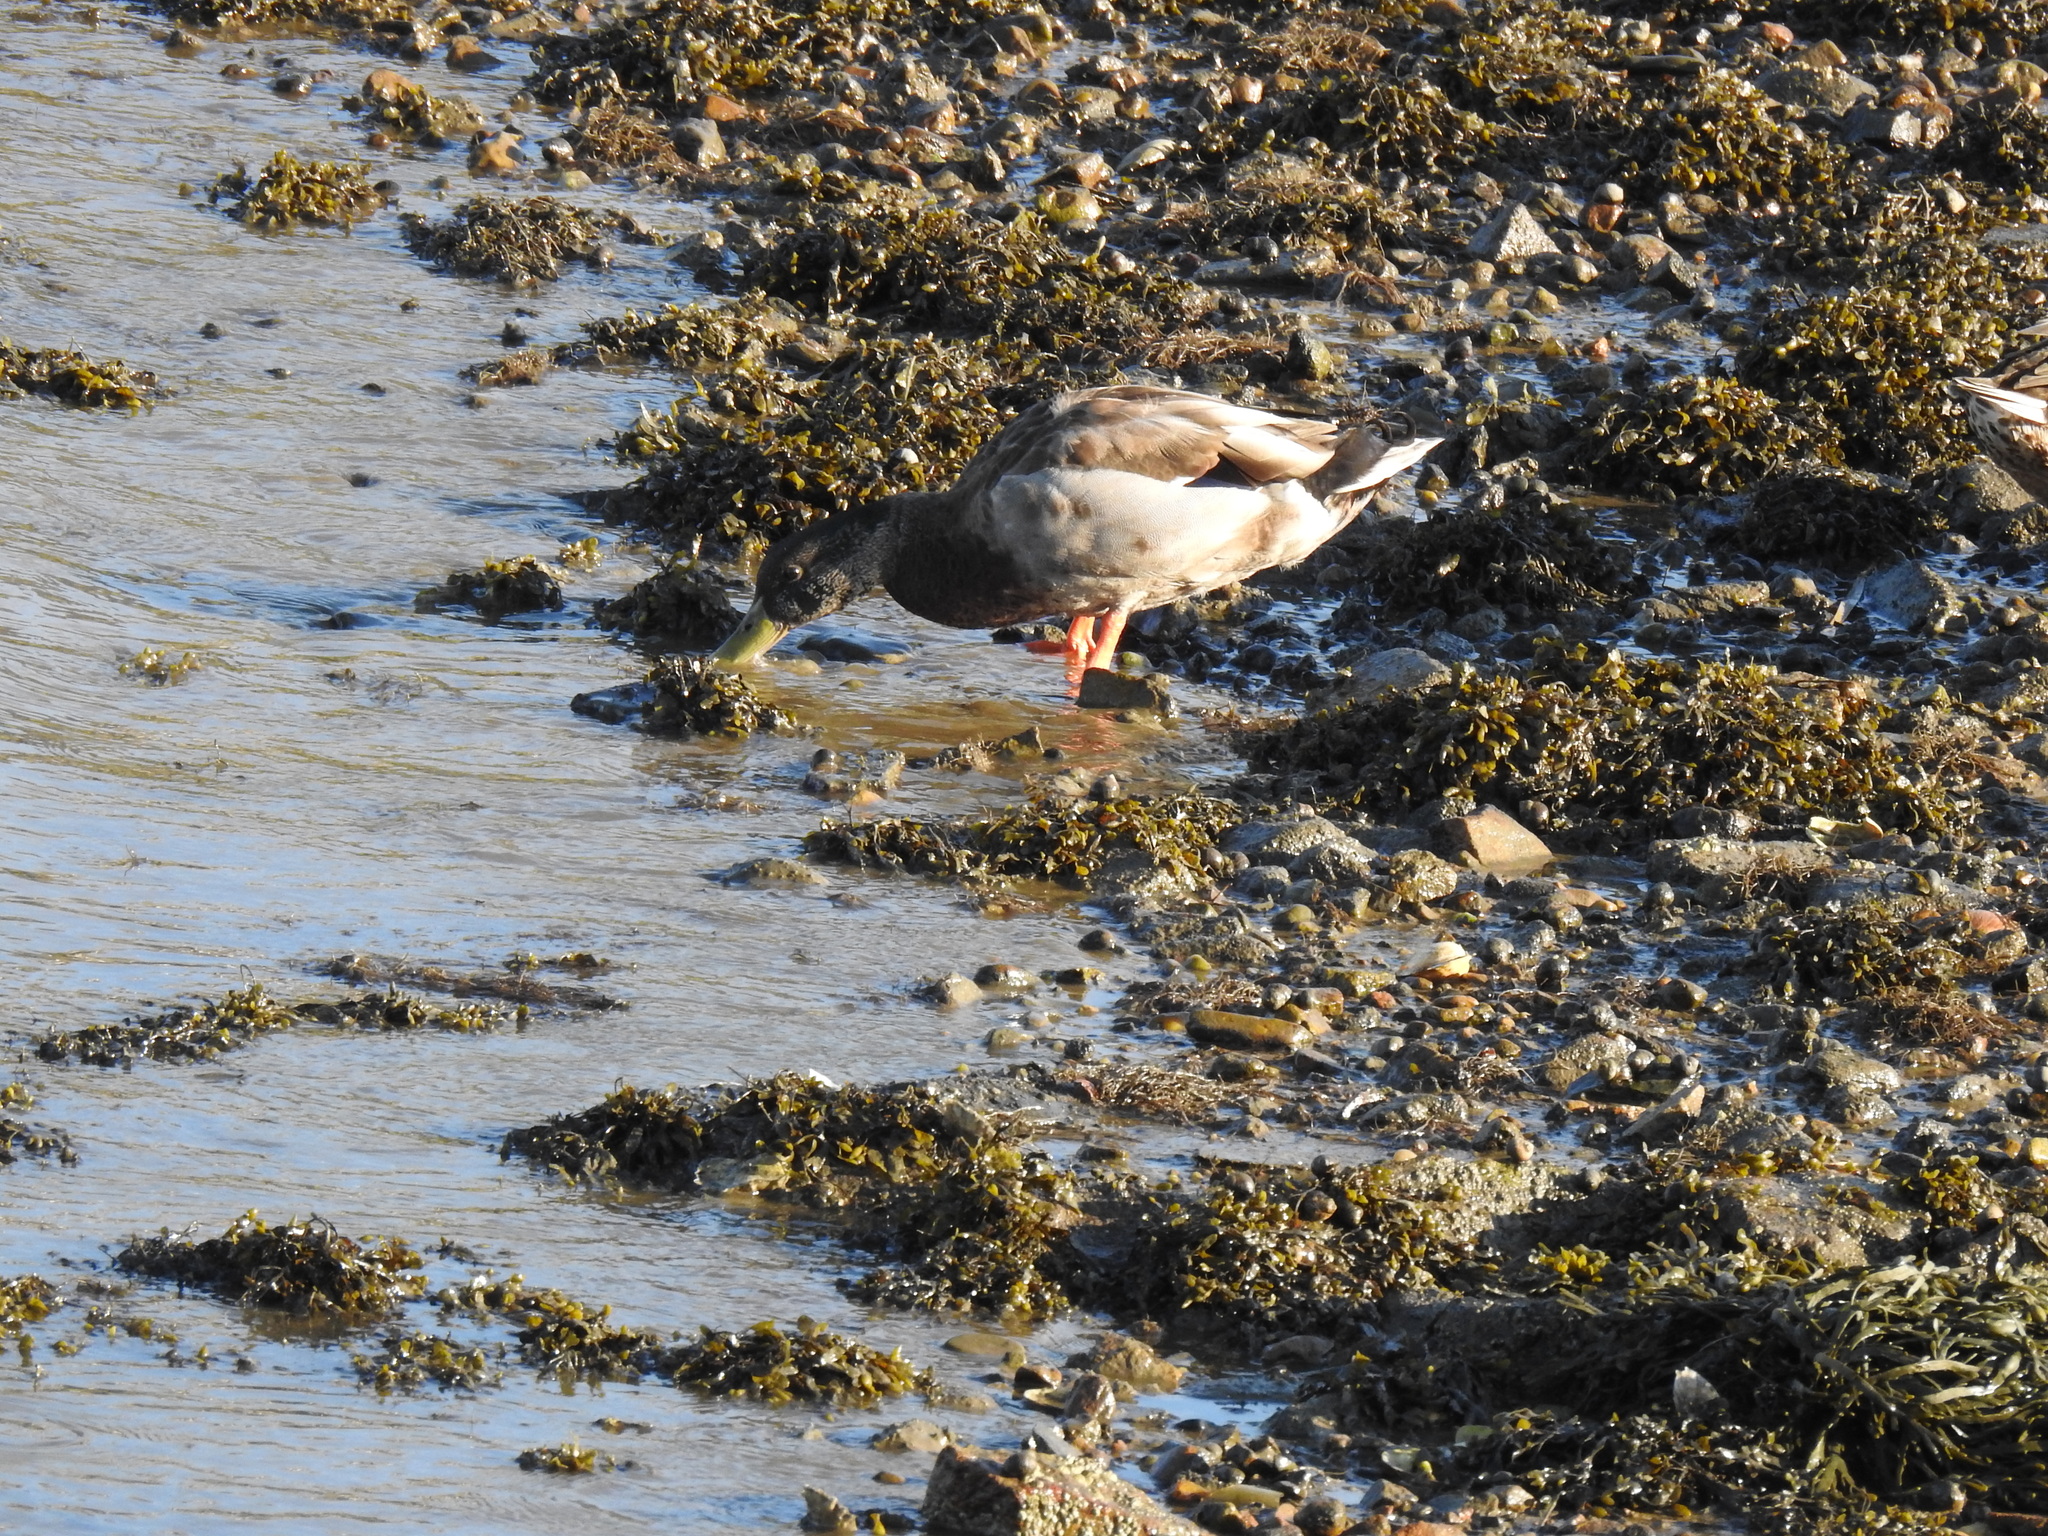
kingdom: Animalia
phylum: Chordata
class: Aves
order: Anseriformes
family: Anatidae
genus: Anas
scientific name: Anas platyrhynchos
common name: Mallard
